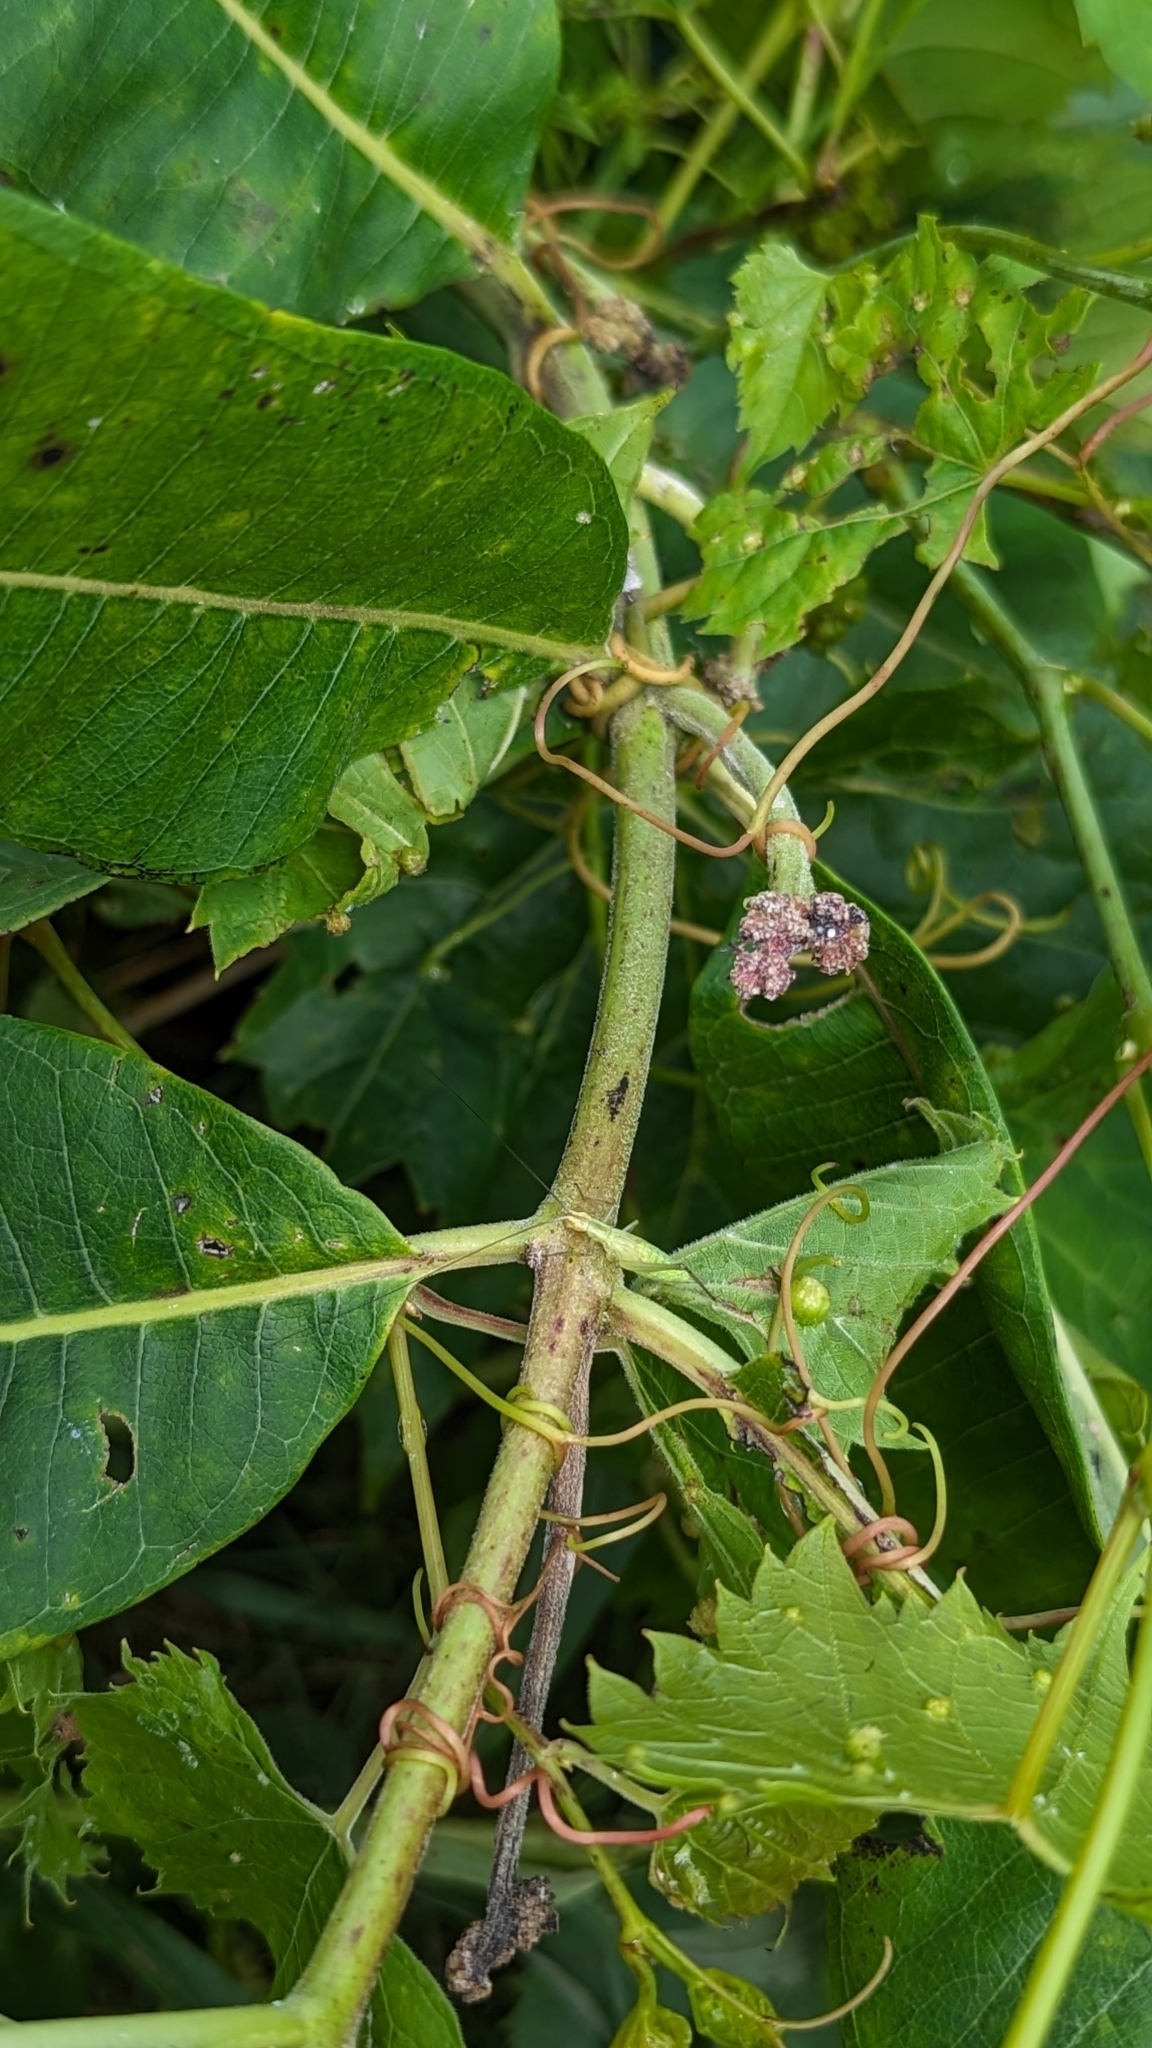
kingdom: Animalia
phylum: Arthropoda
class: Insecta
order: Orthoptera
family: Gryllidae
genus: Oecanthus
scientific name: Oecanthus
